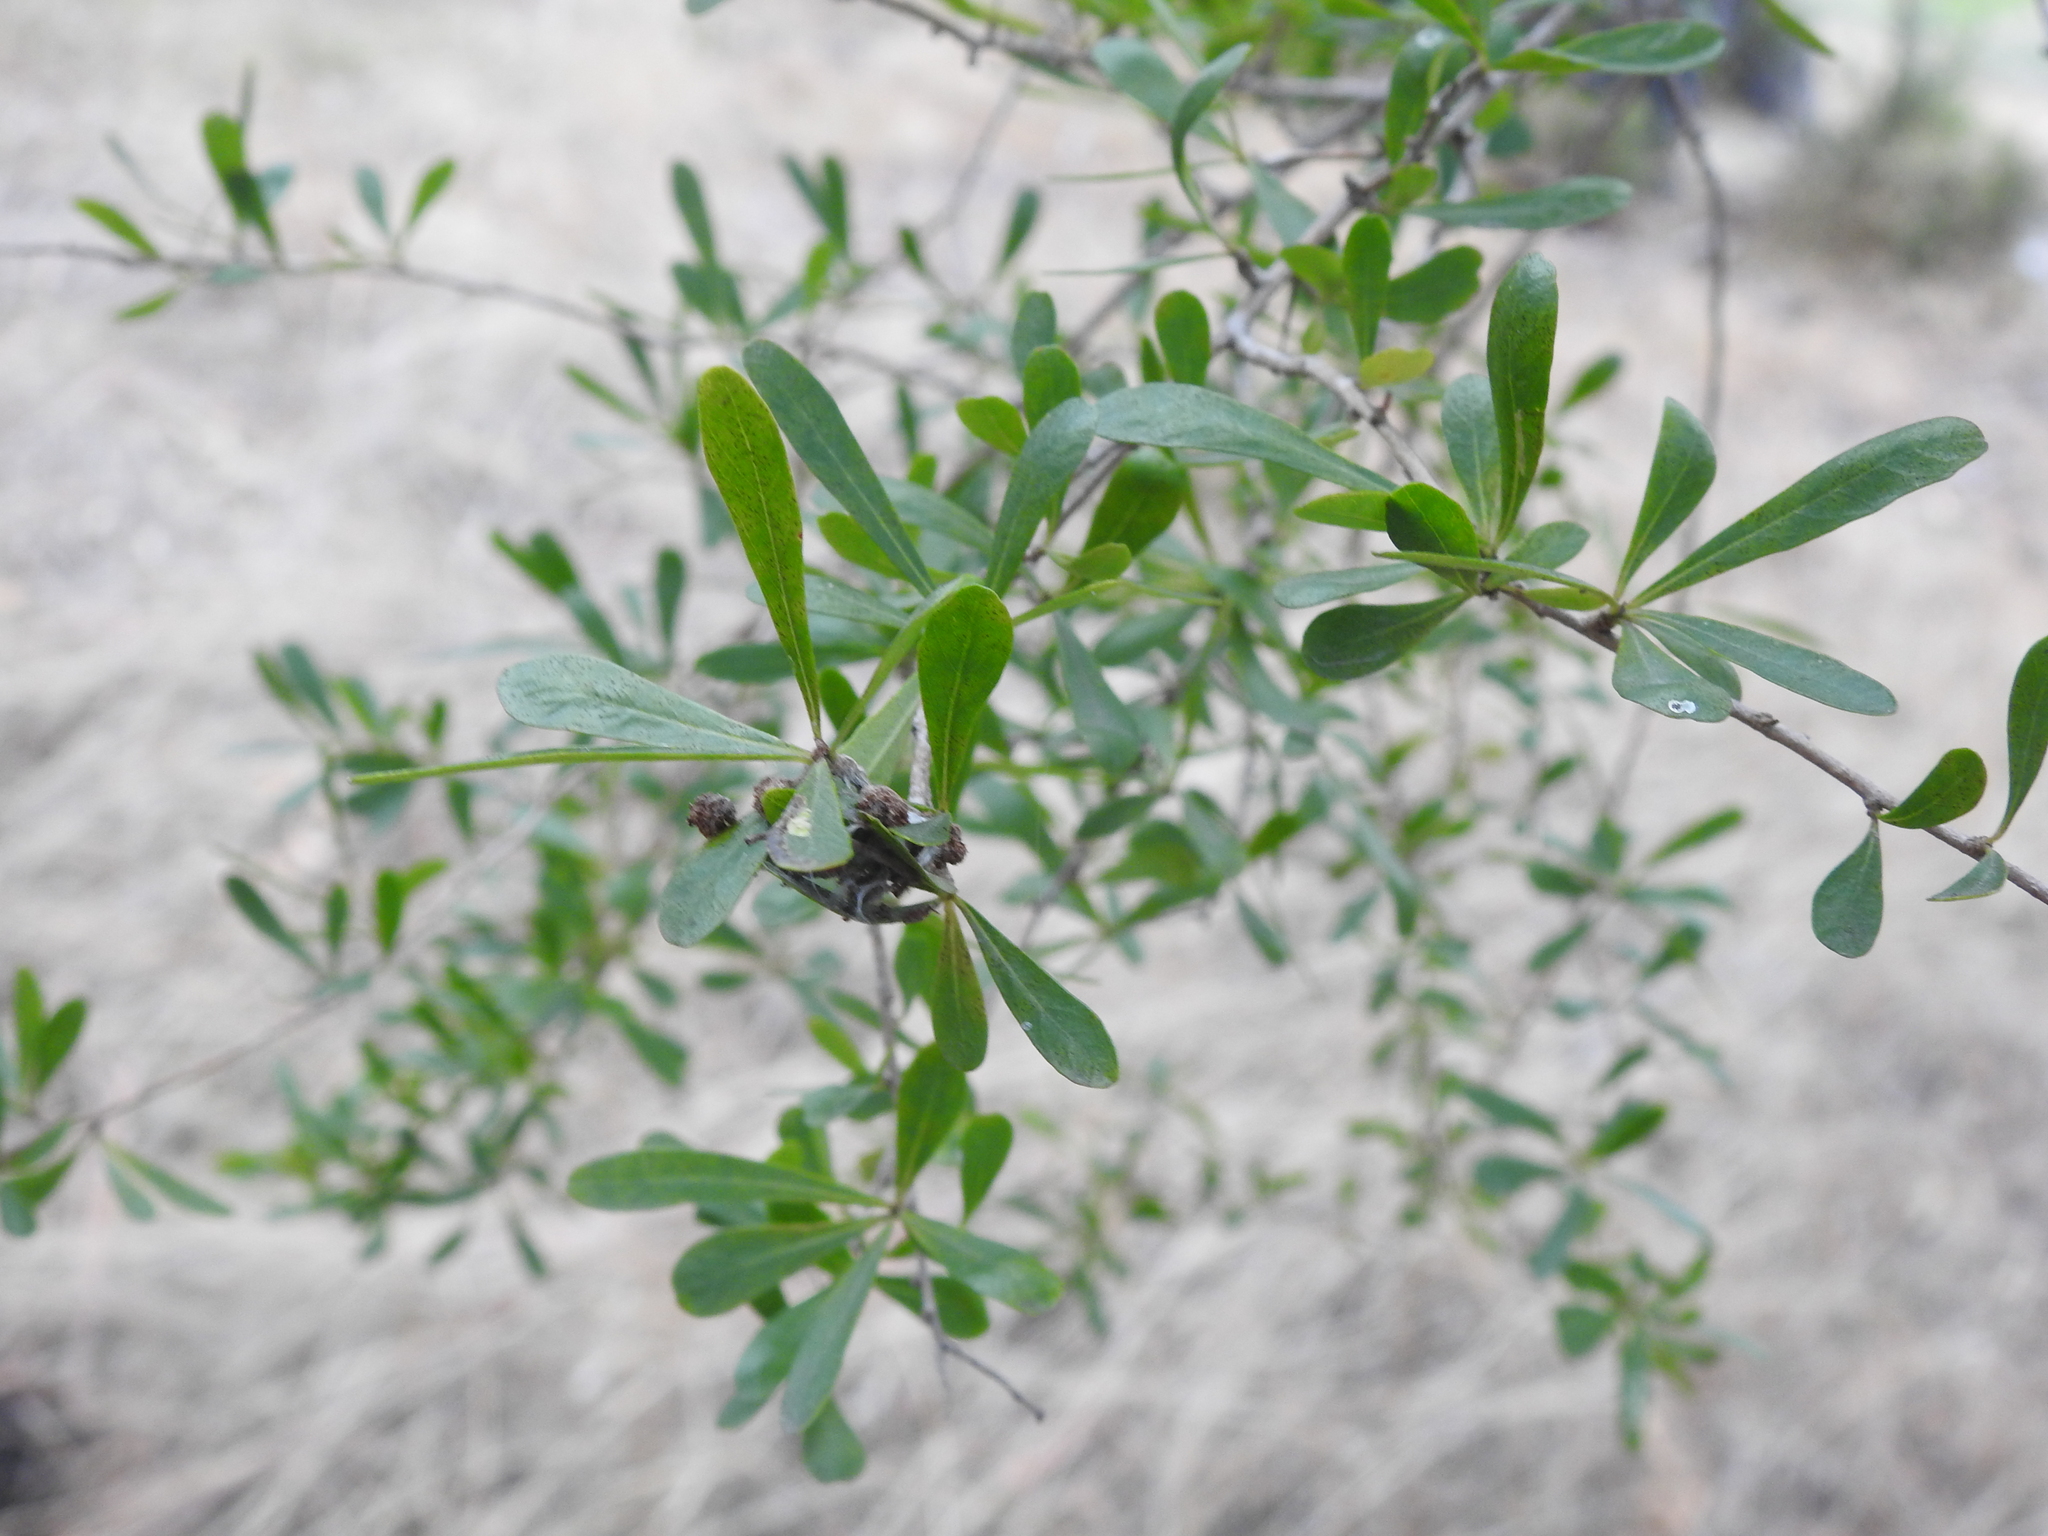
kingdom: Plantae
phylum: Tracheophyta
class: Magnoliopsida
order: Apiales
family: Pittosporaceae
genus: Bursaria
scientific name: Bursaria spinosa
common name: Australian blackthorn
